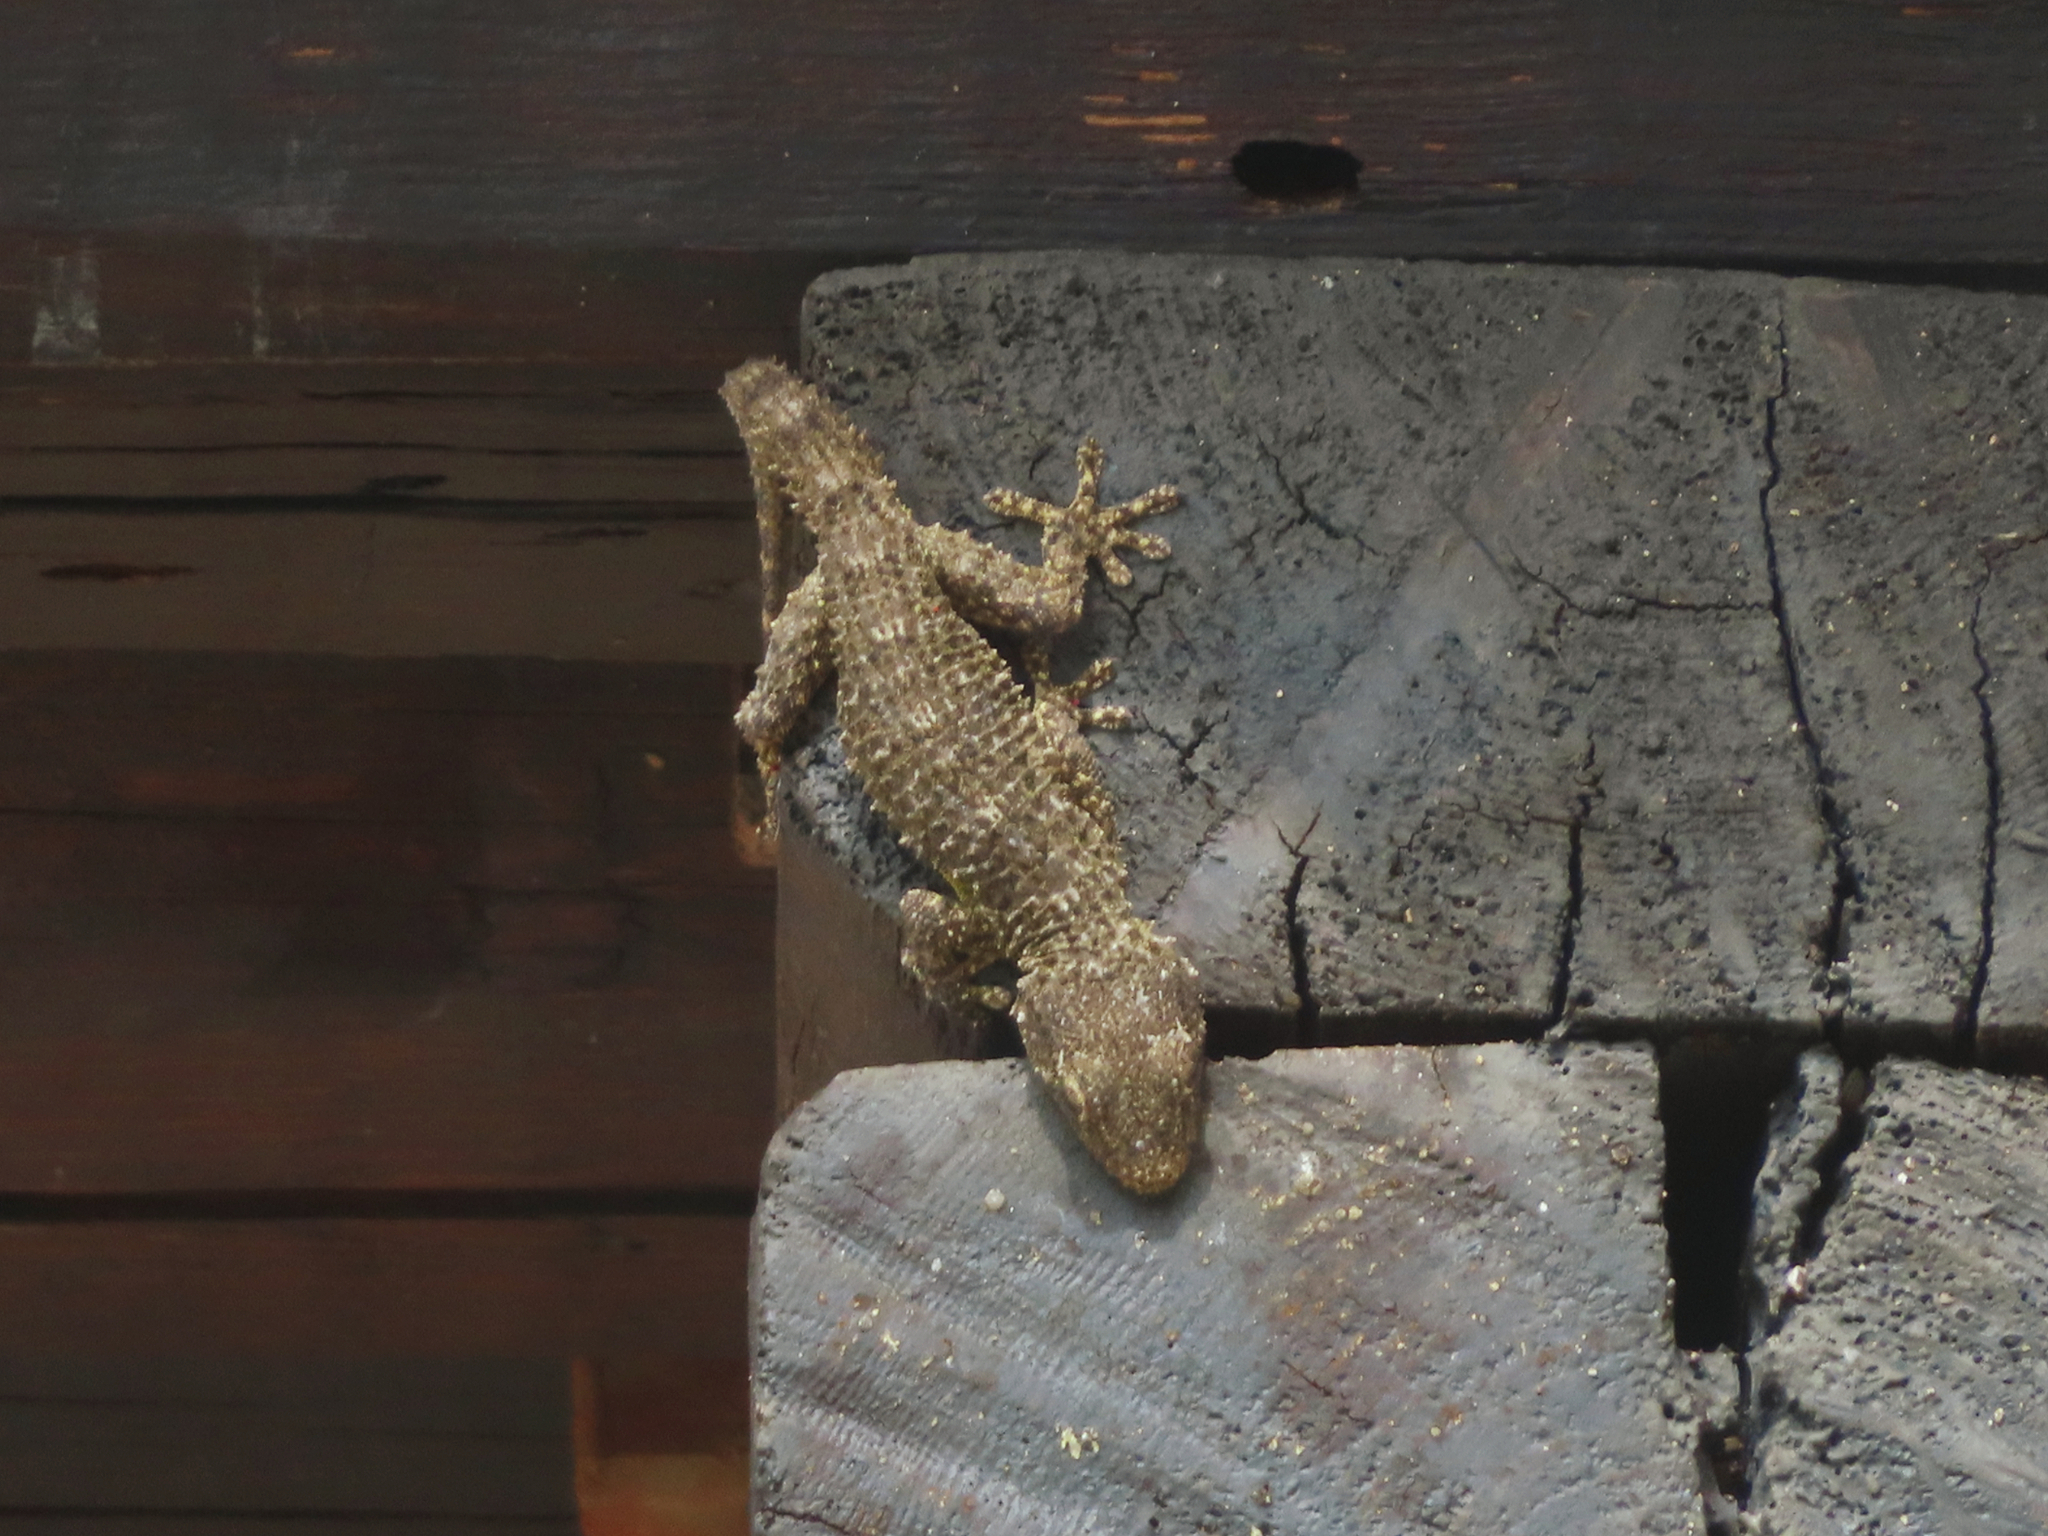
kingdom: Animalia
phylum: Chordata
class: Squamata
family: Phyllodactylidae
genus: Tarentola
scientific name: Tarentola mauritanica
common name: Moorish gecko
